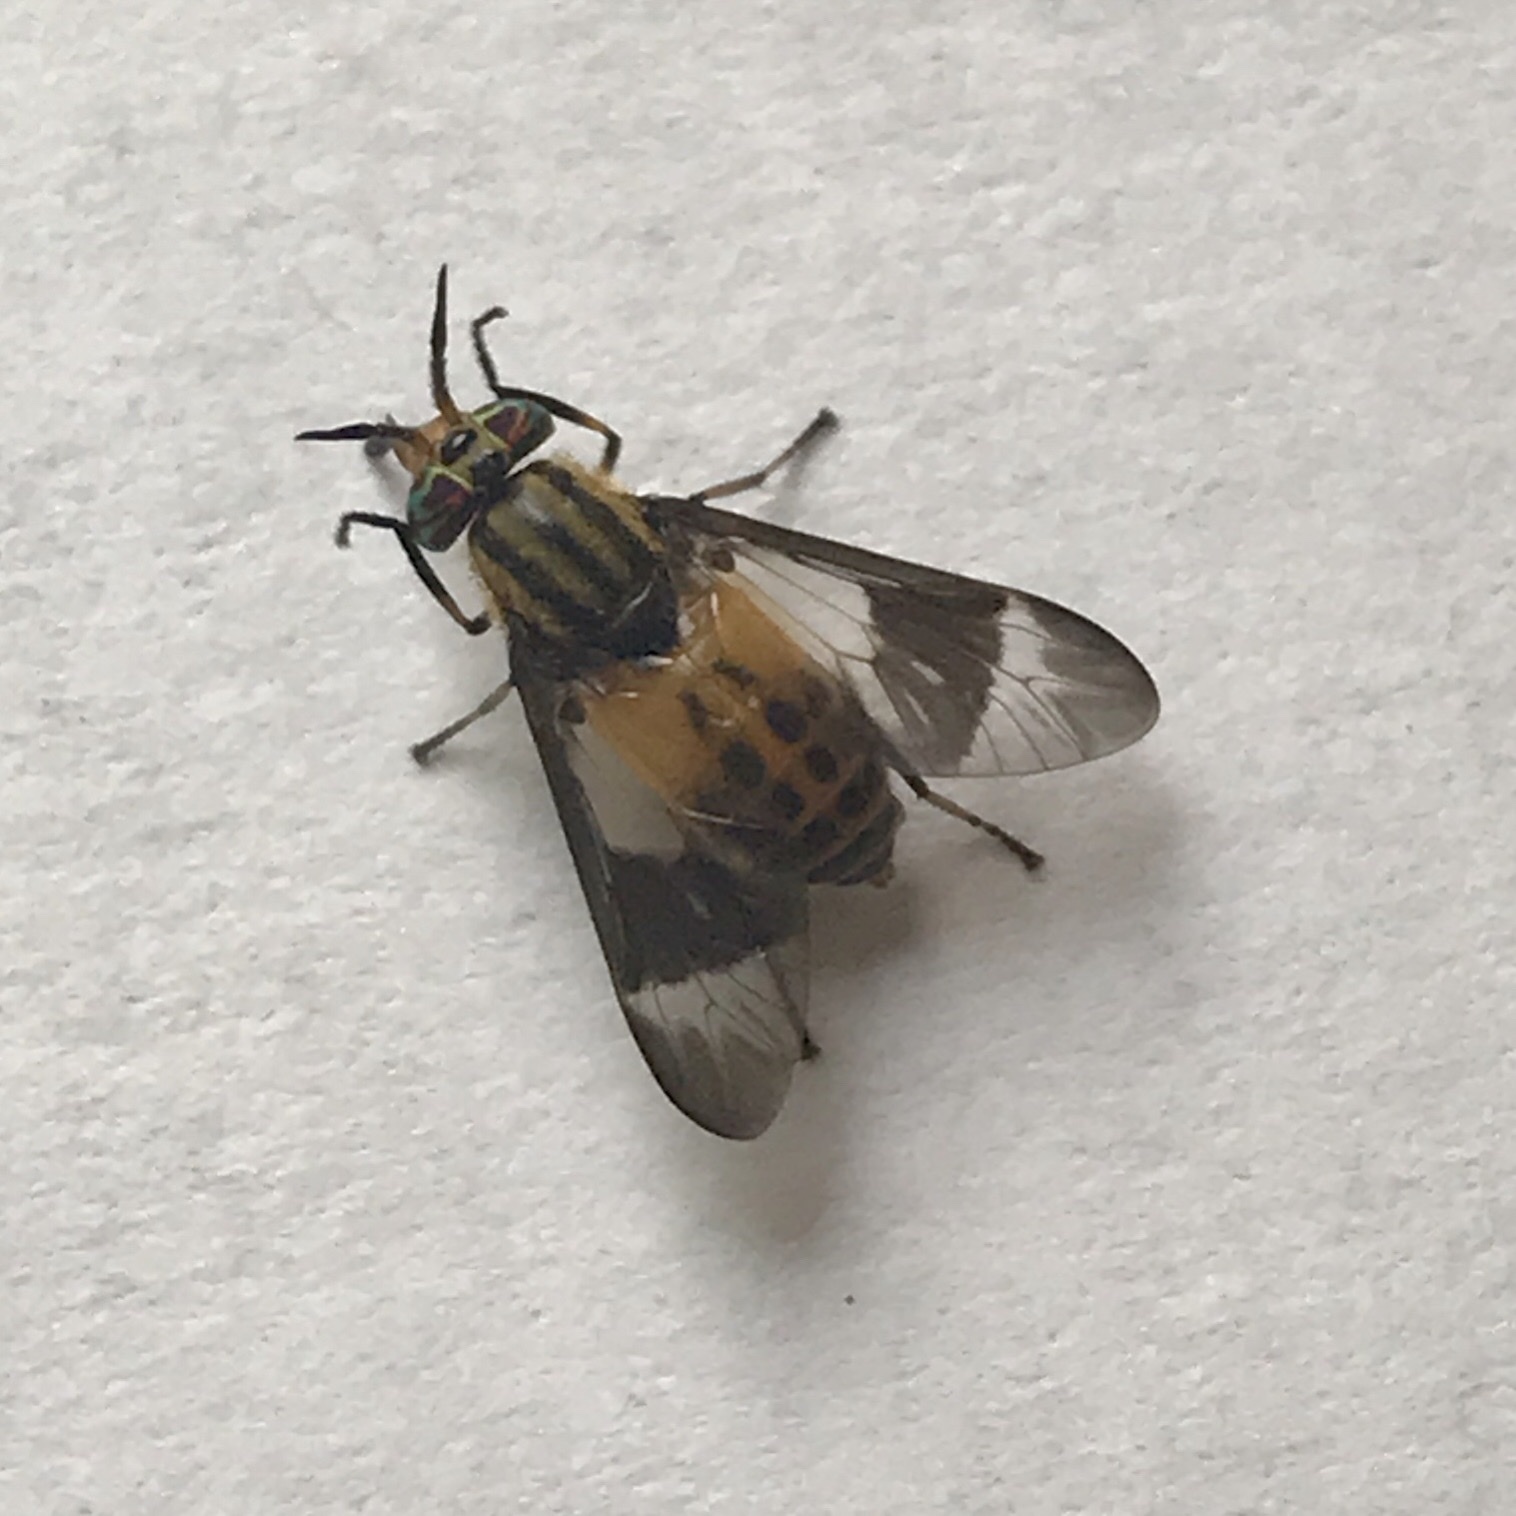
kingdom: Animalia
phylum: Arthropoda
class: Insecta
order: Diptera
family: Tabanidae
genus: Chrysops
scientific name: Chrysops geminatus
